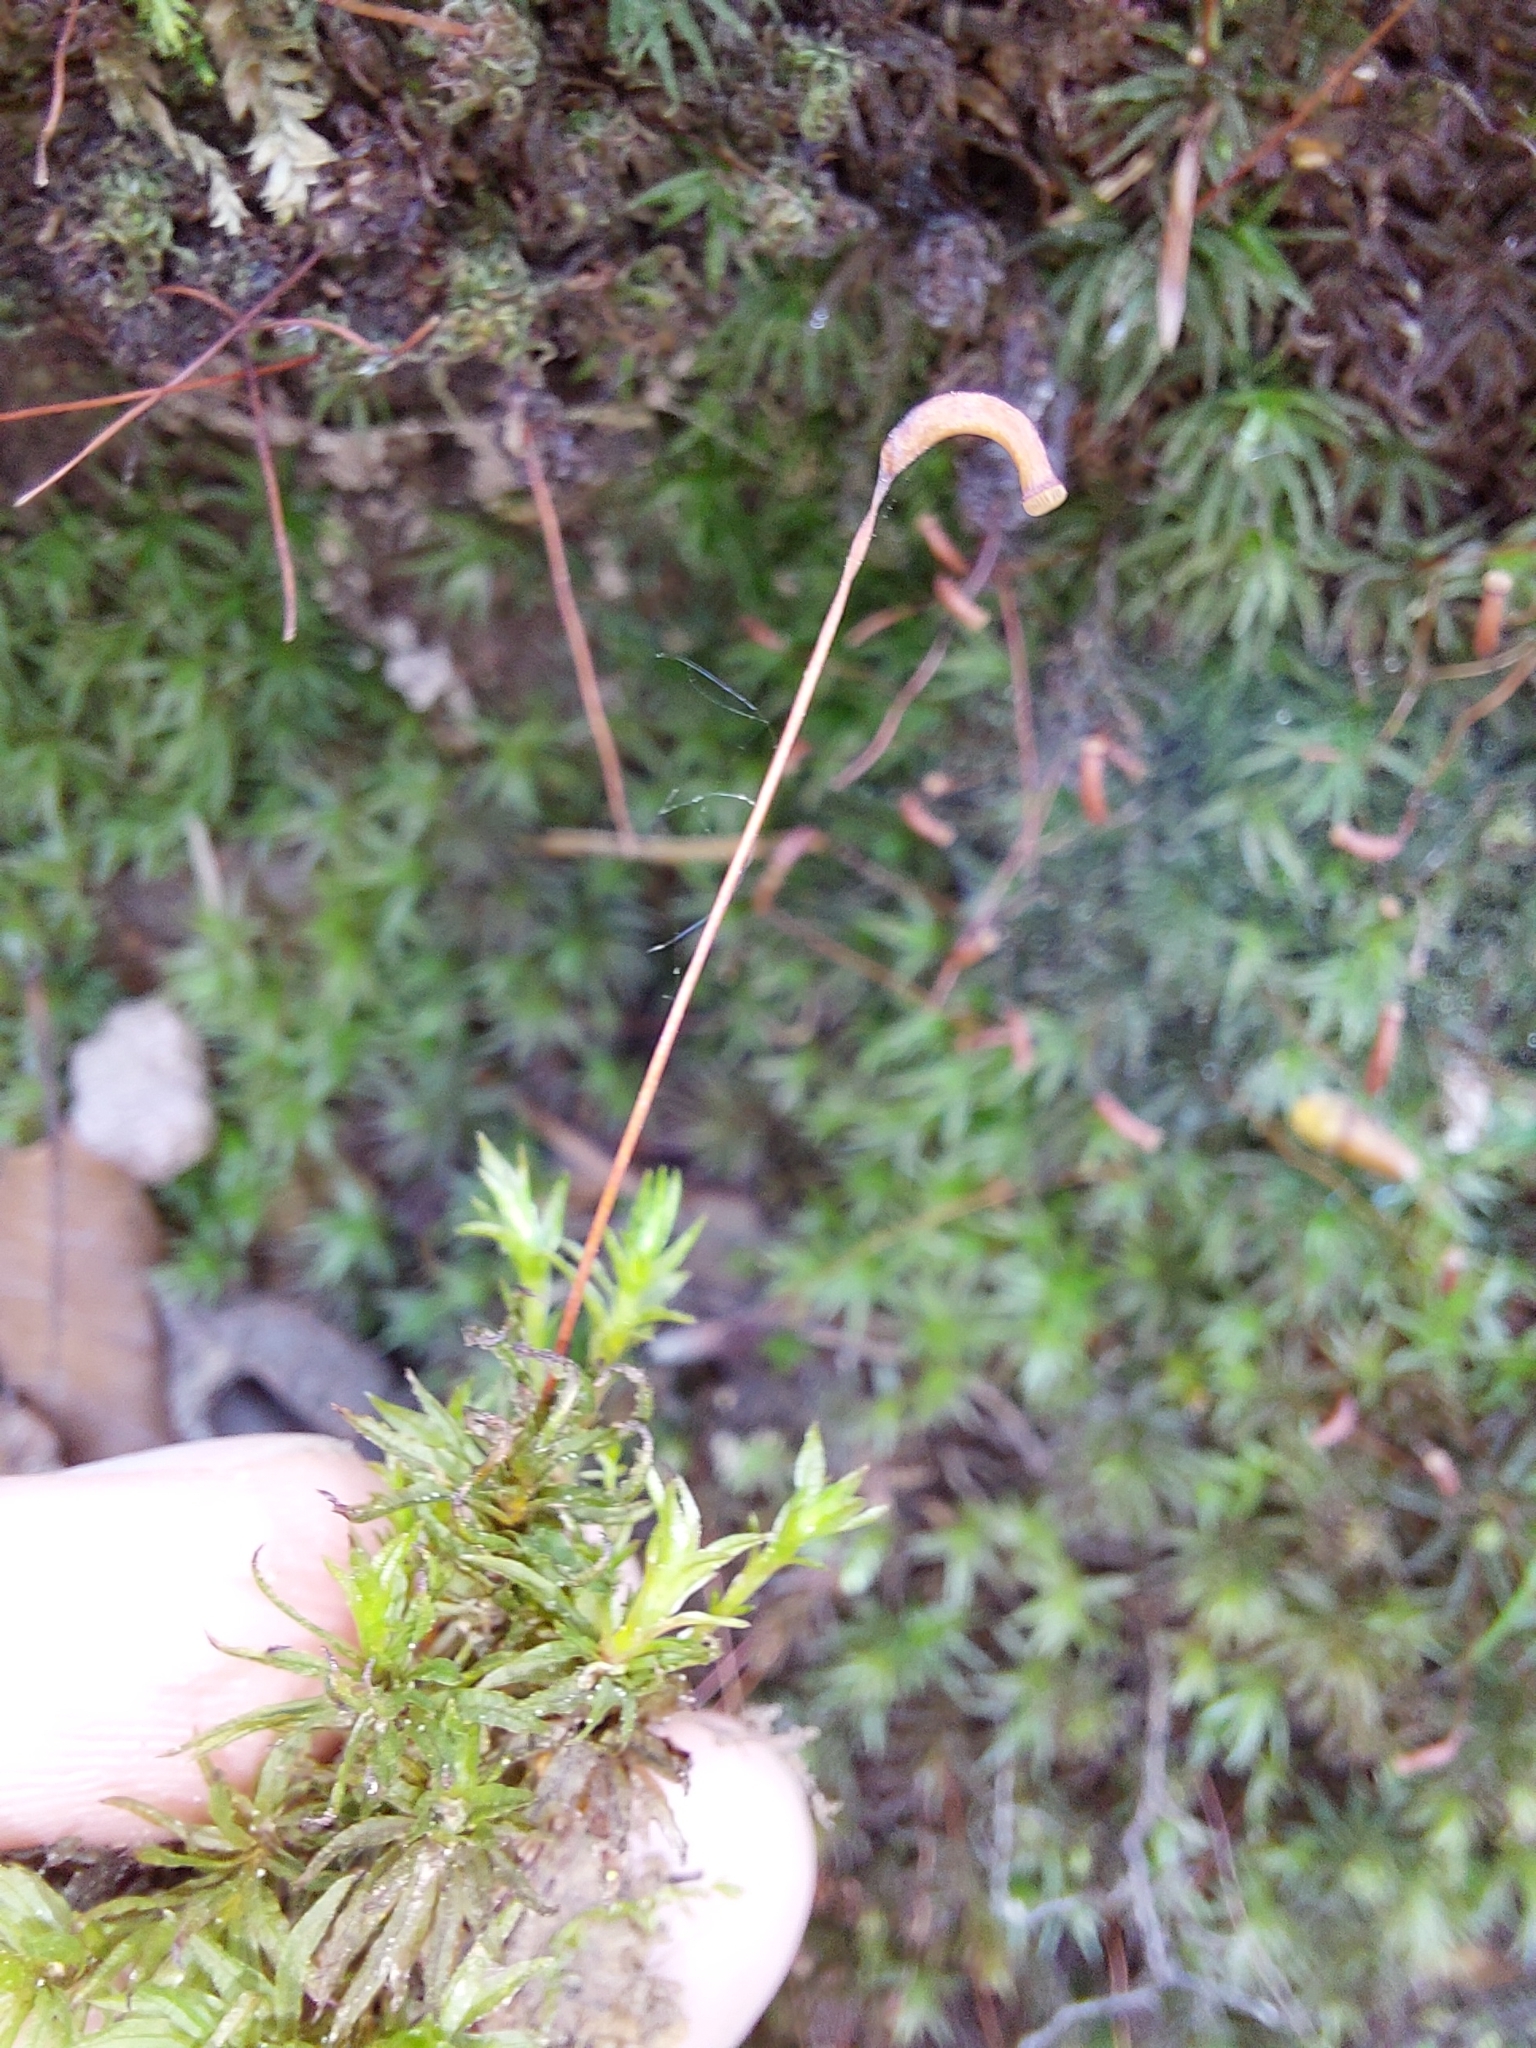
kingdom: Plantae
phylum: Bryophyta
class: Polytrichopsida
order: Polytrichales
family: Polytrichaceae
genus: Atrichum
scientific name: Atrichum undulatum
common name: Common smoothcap
